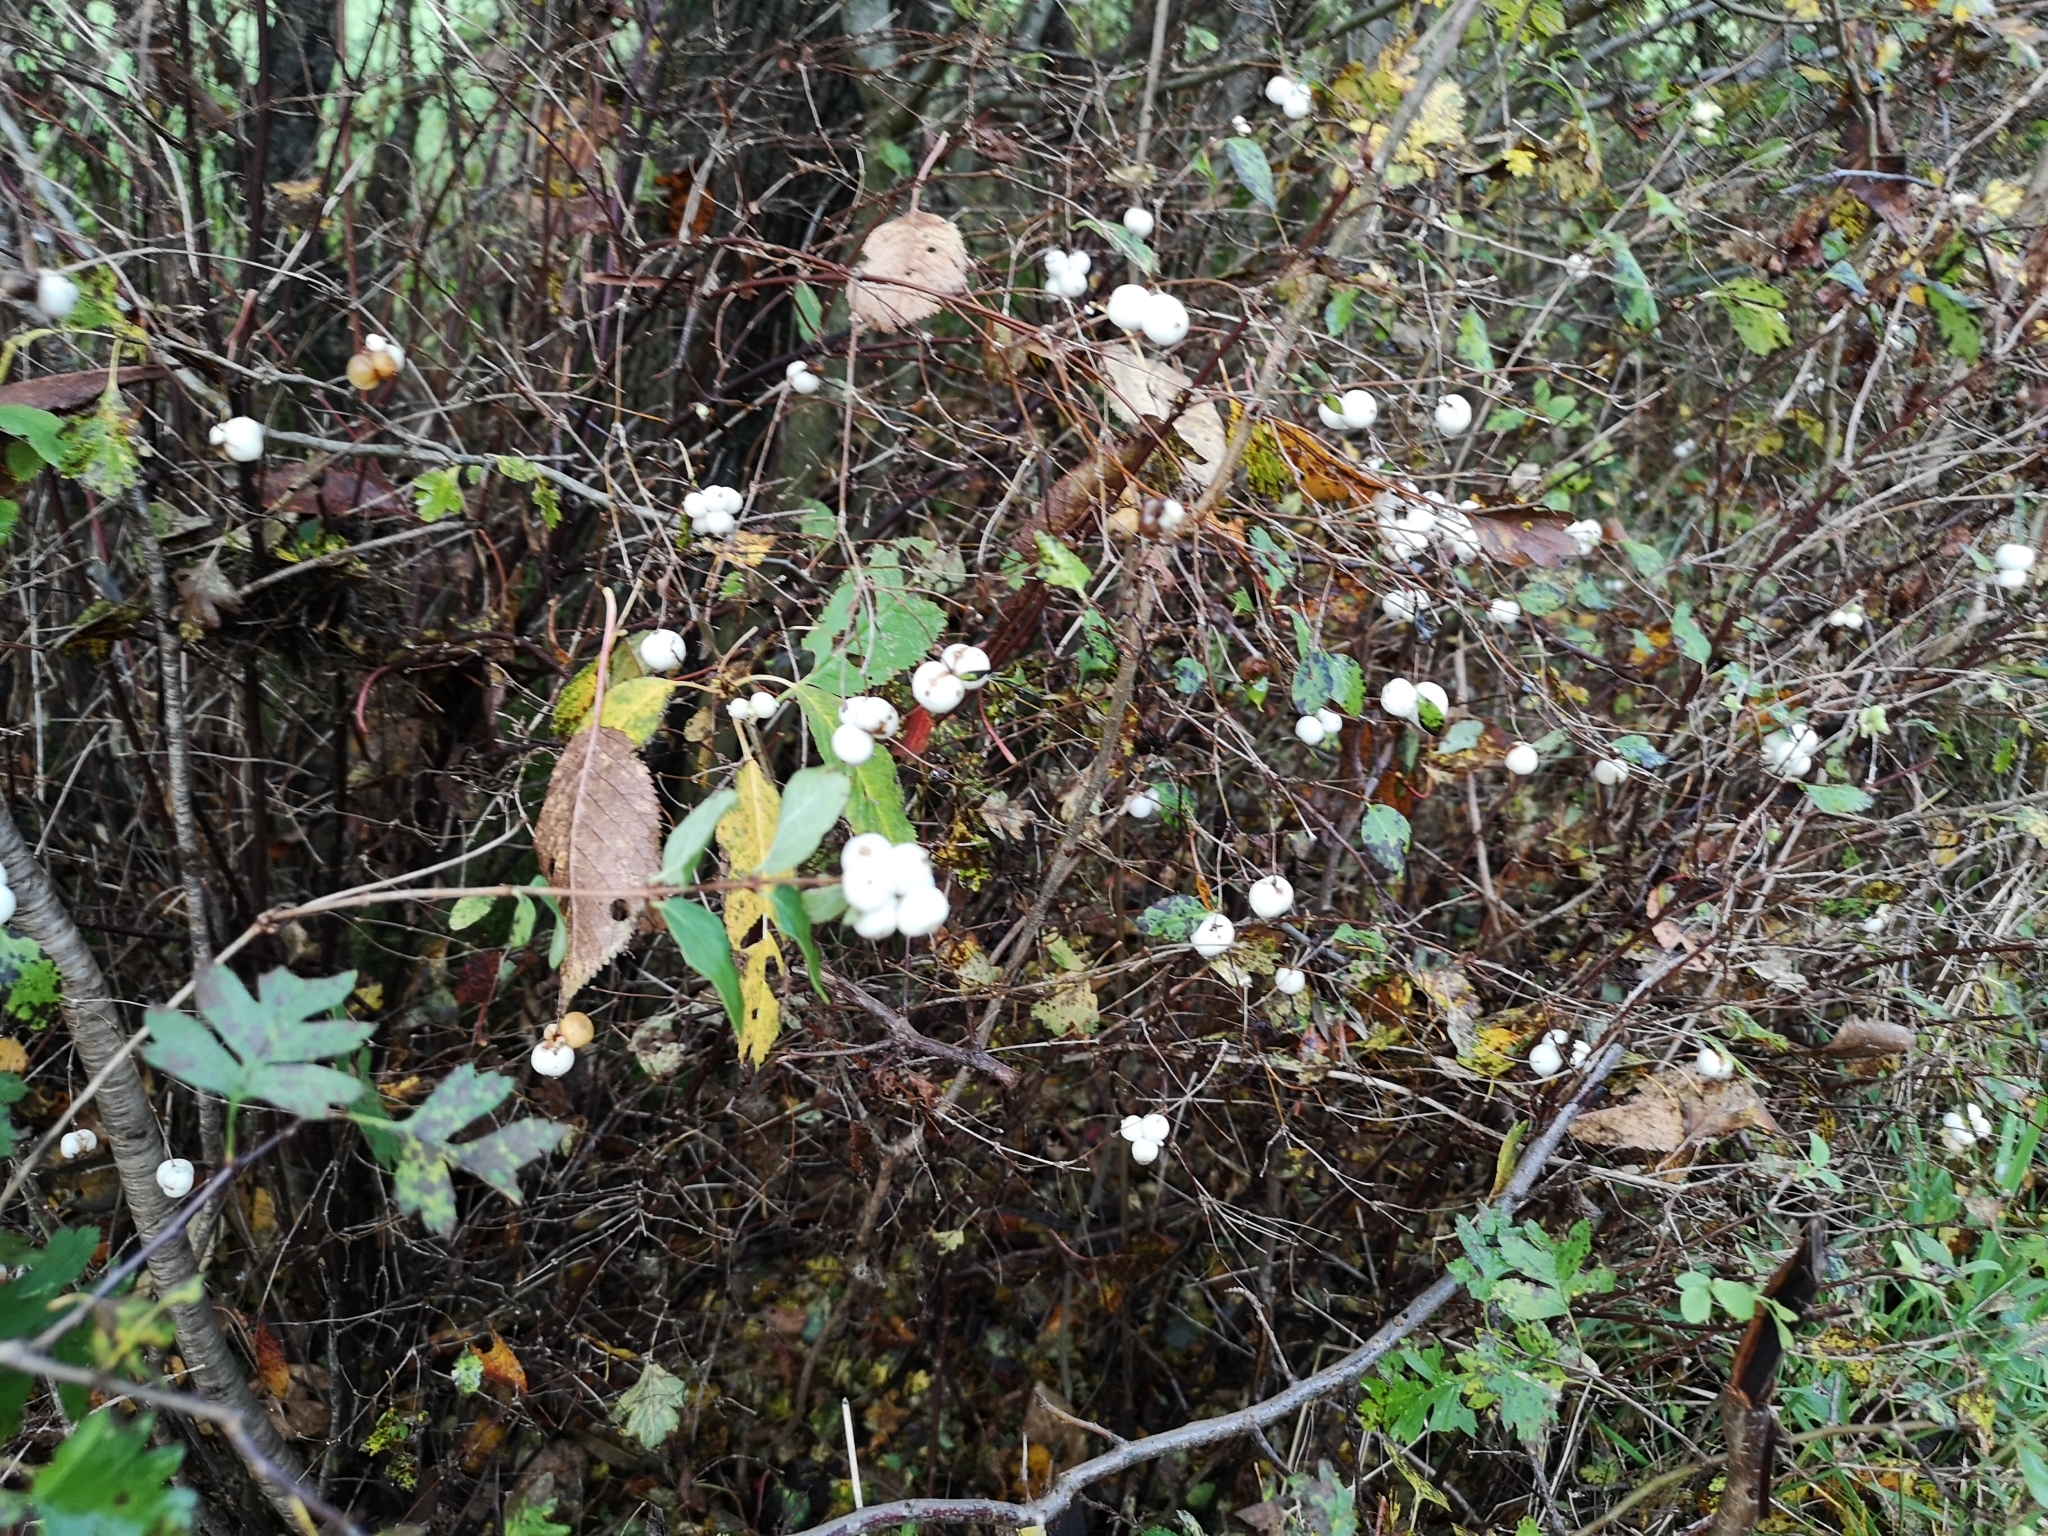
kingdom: Plantae
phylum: Tracheophyta
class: Magnoliopsida
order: Dipsacales
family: Caprifoliaceae
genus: Symphoricarpos
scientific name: Symphoricarpos albus
